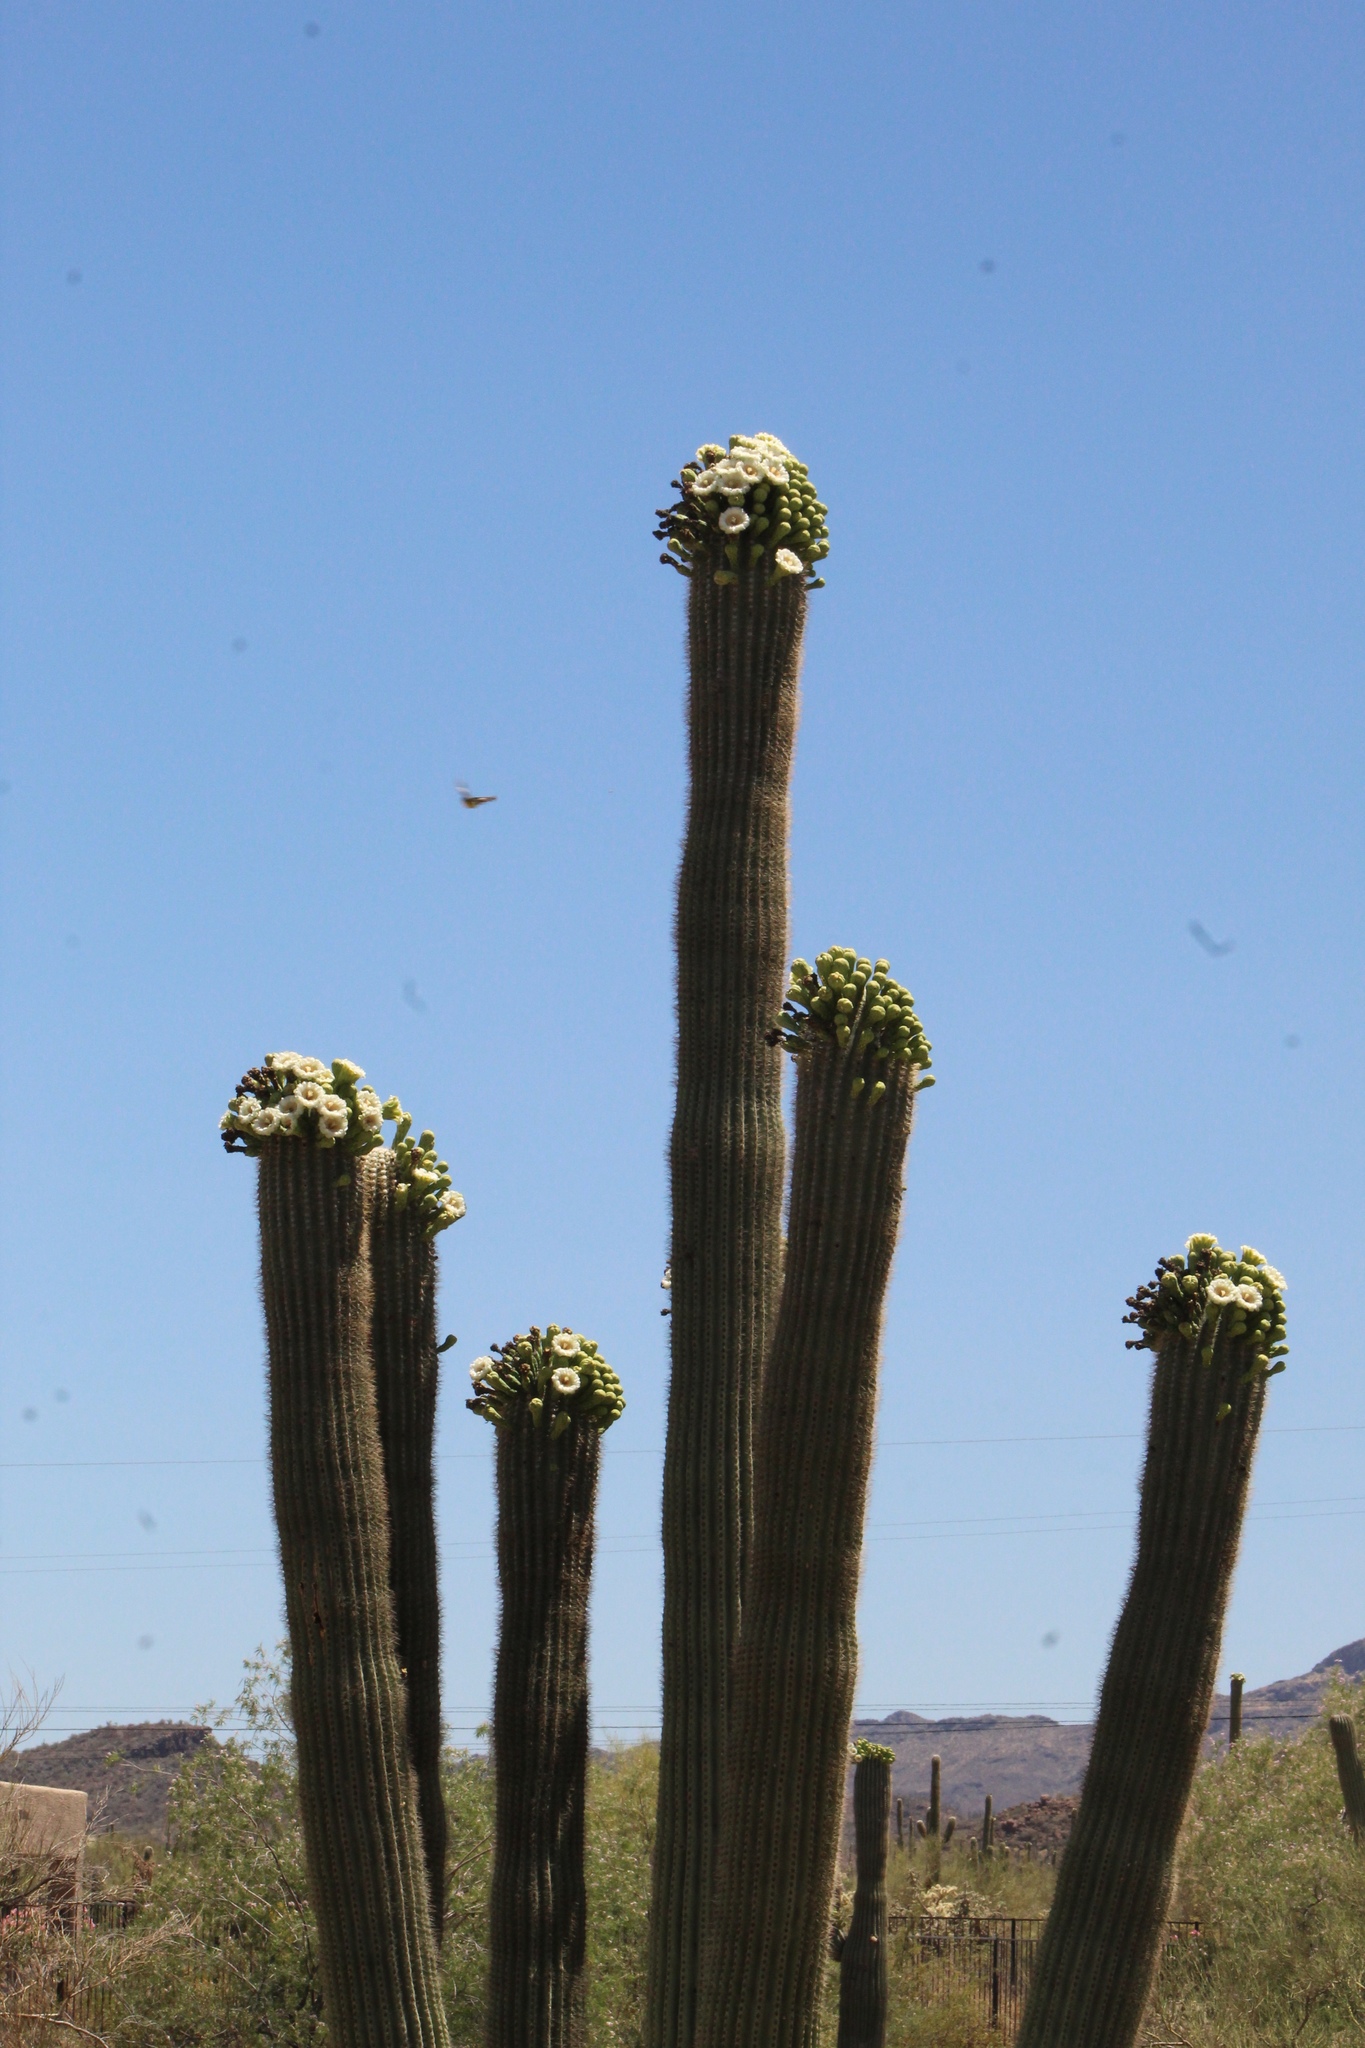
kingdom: Plantae
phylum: Tracheophyta
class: Magnoliopsida
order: Caryophyllales
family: Cactaceae
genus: Carnegiea
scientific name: Carnegiea gigantea
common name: Saguaro
